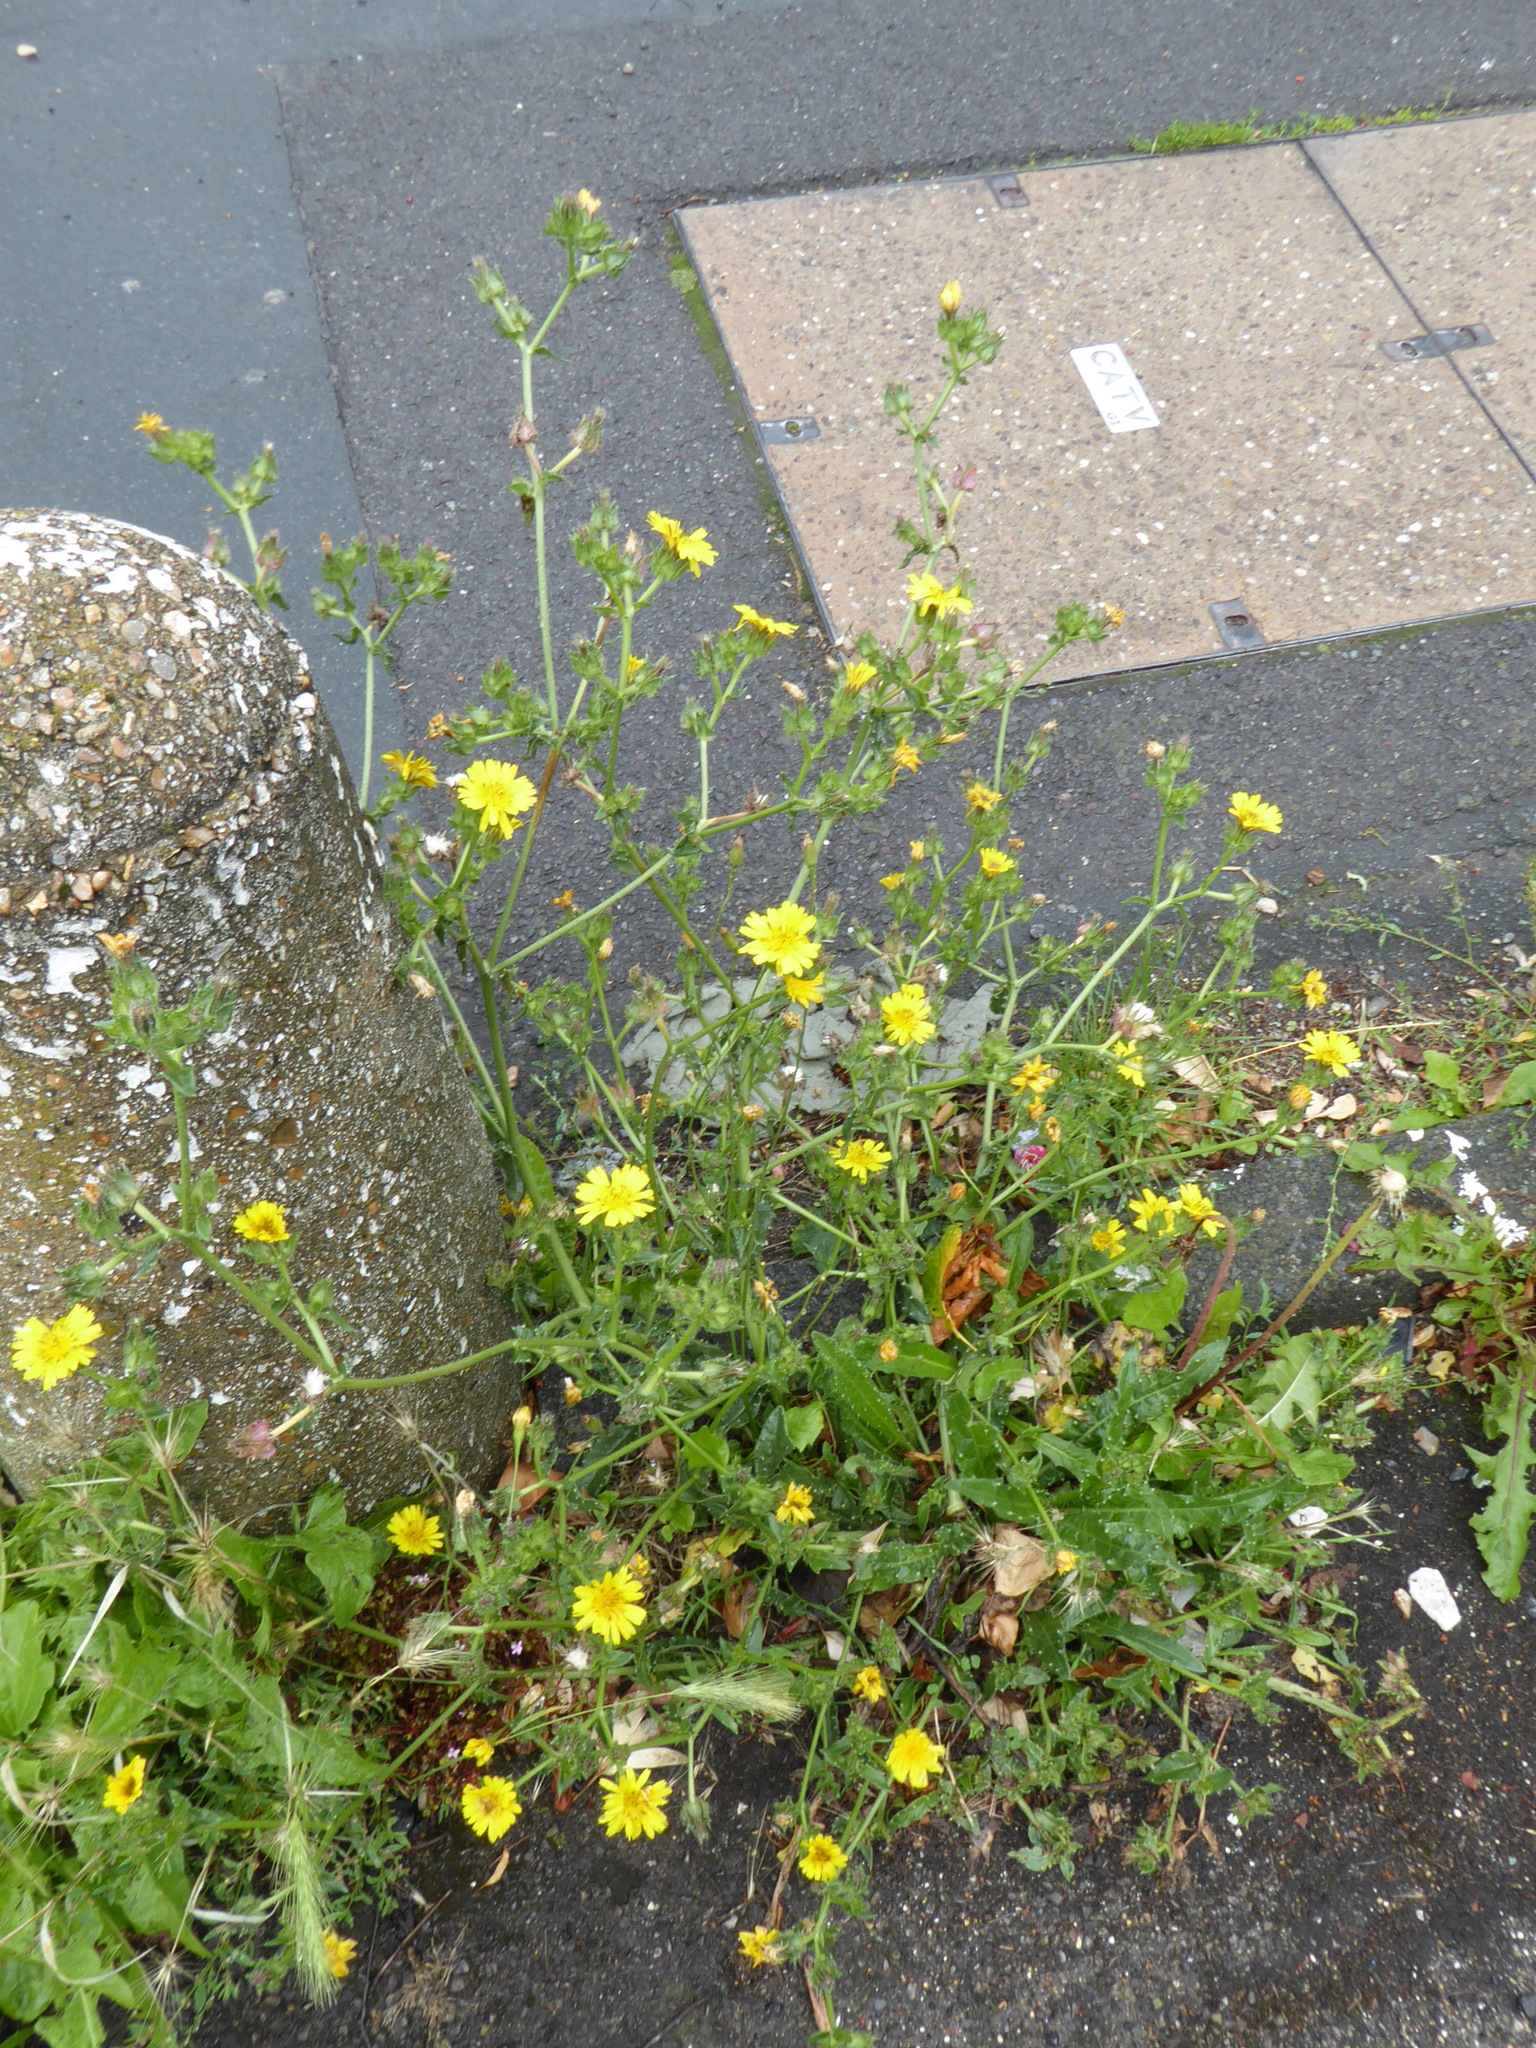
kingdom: Plantae
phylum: Tracheophyta
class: Magnoliopsida
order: Asterales
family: Asteraceae
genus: Helminthotheca
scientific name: Helminthotheca echioides
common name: Ox-tongue
